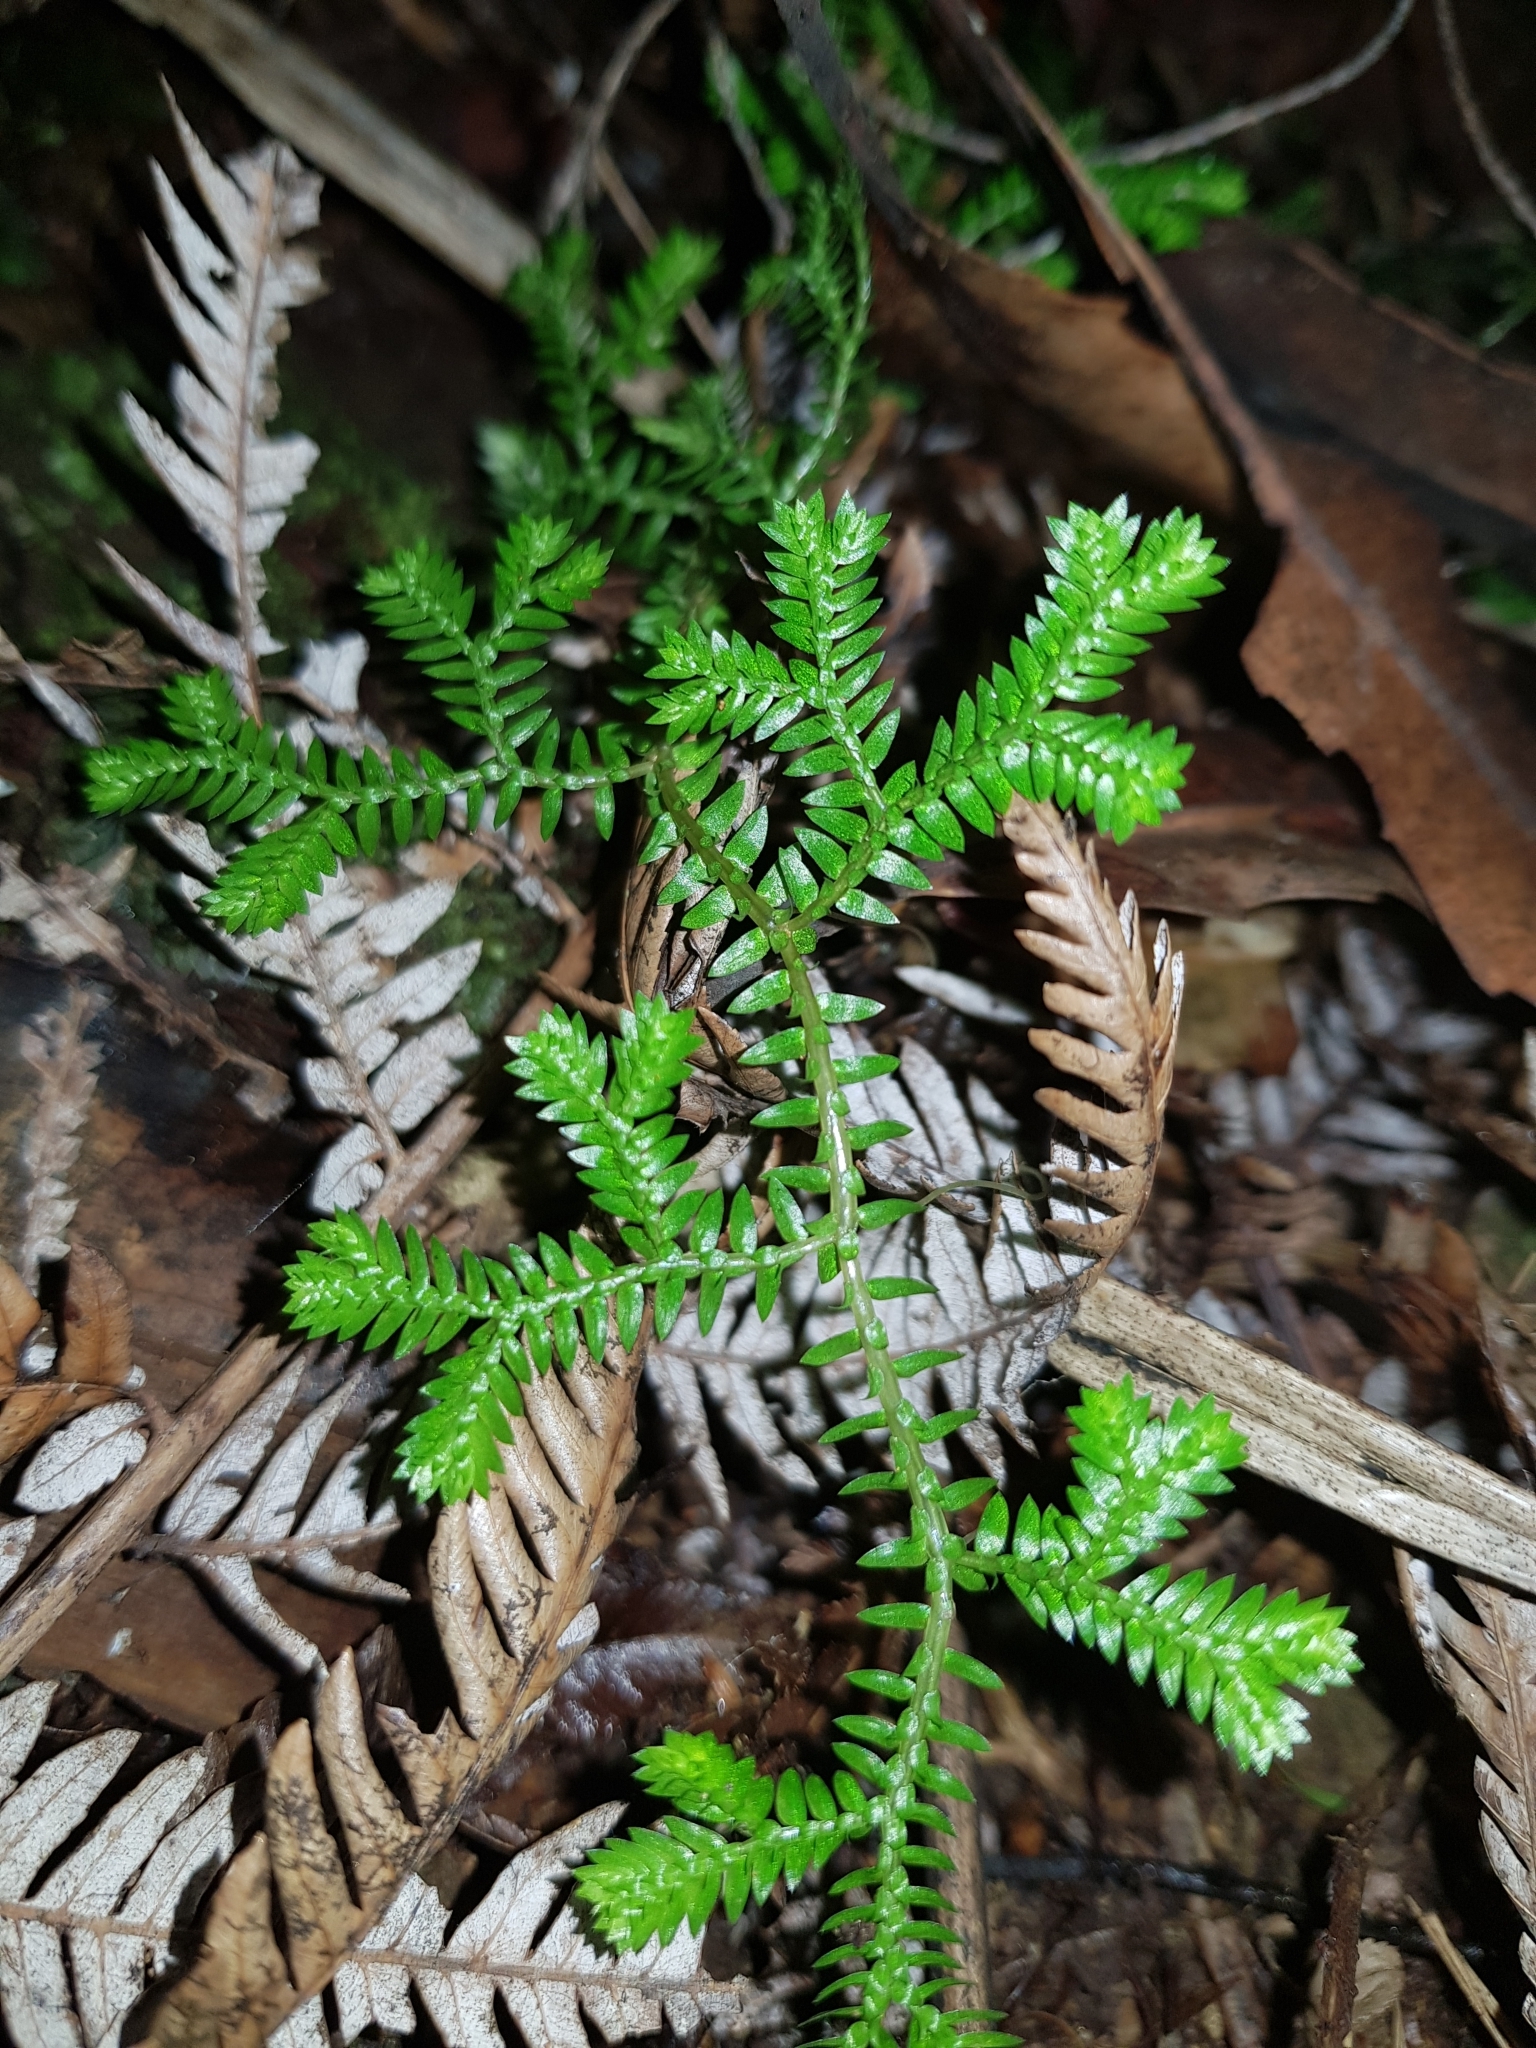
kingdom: Plantae
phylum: Tracheophyta
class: Lycopodiopsida
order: Selaginellales
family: Selaginellaceae
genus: Selaginella
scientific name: Selaginella kraussiana
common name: Krauss' spikemoss
